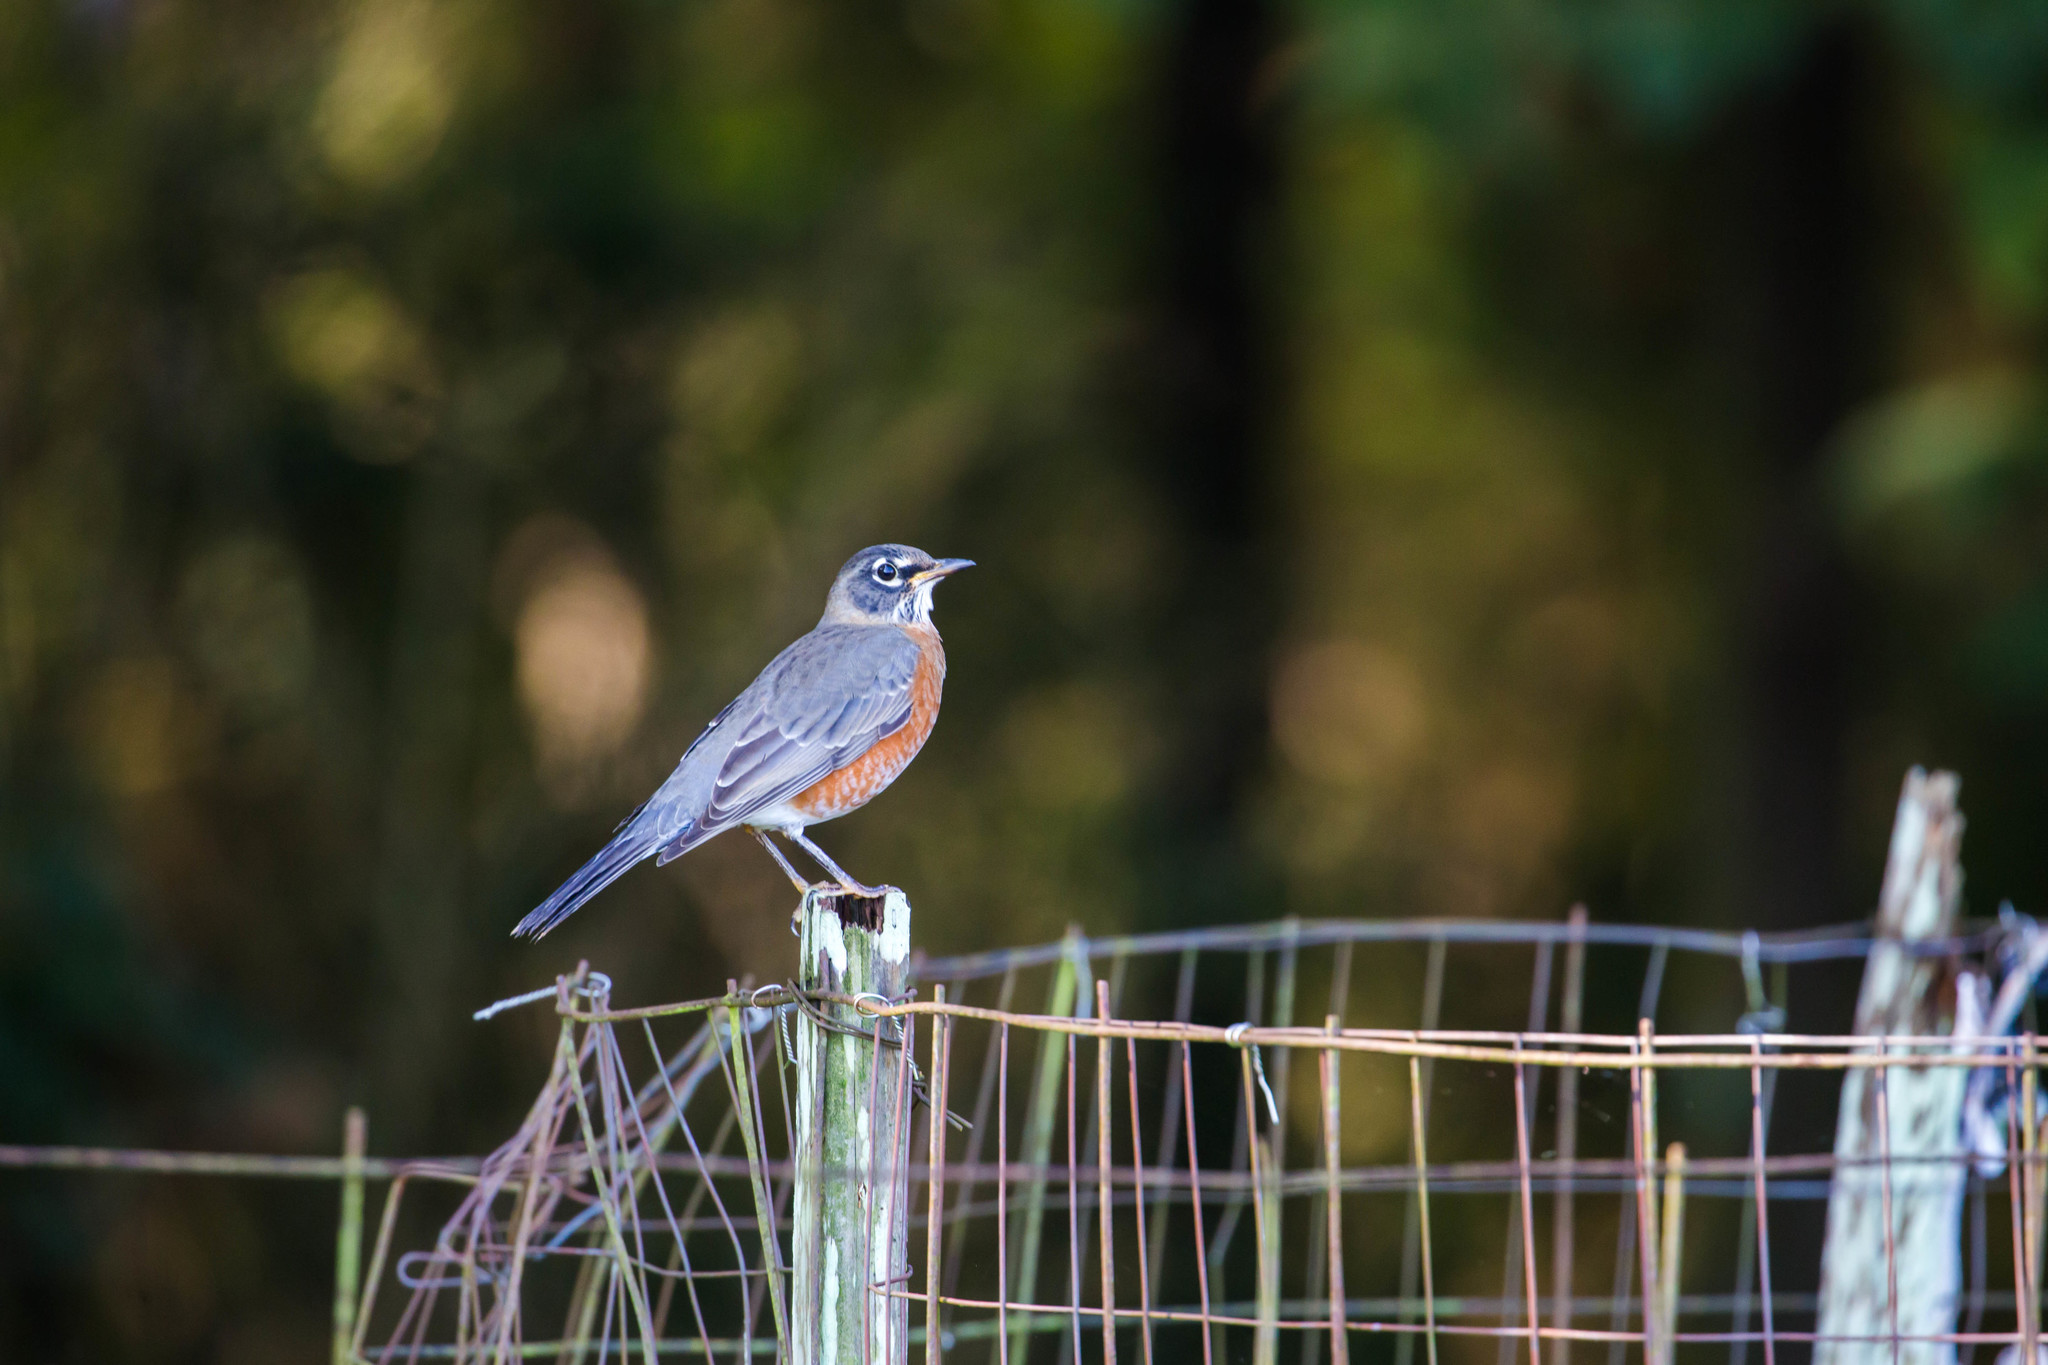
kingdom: Animalia
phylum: Chordata
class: Aves
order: Passeriformes
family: Turdidae
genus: Turdus
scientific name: Turdus migratorius
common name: American robin
